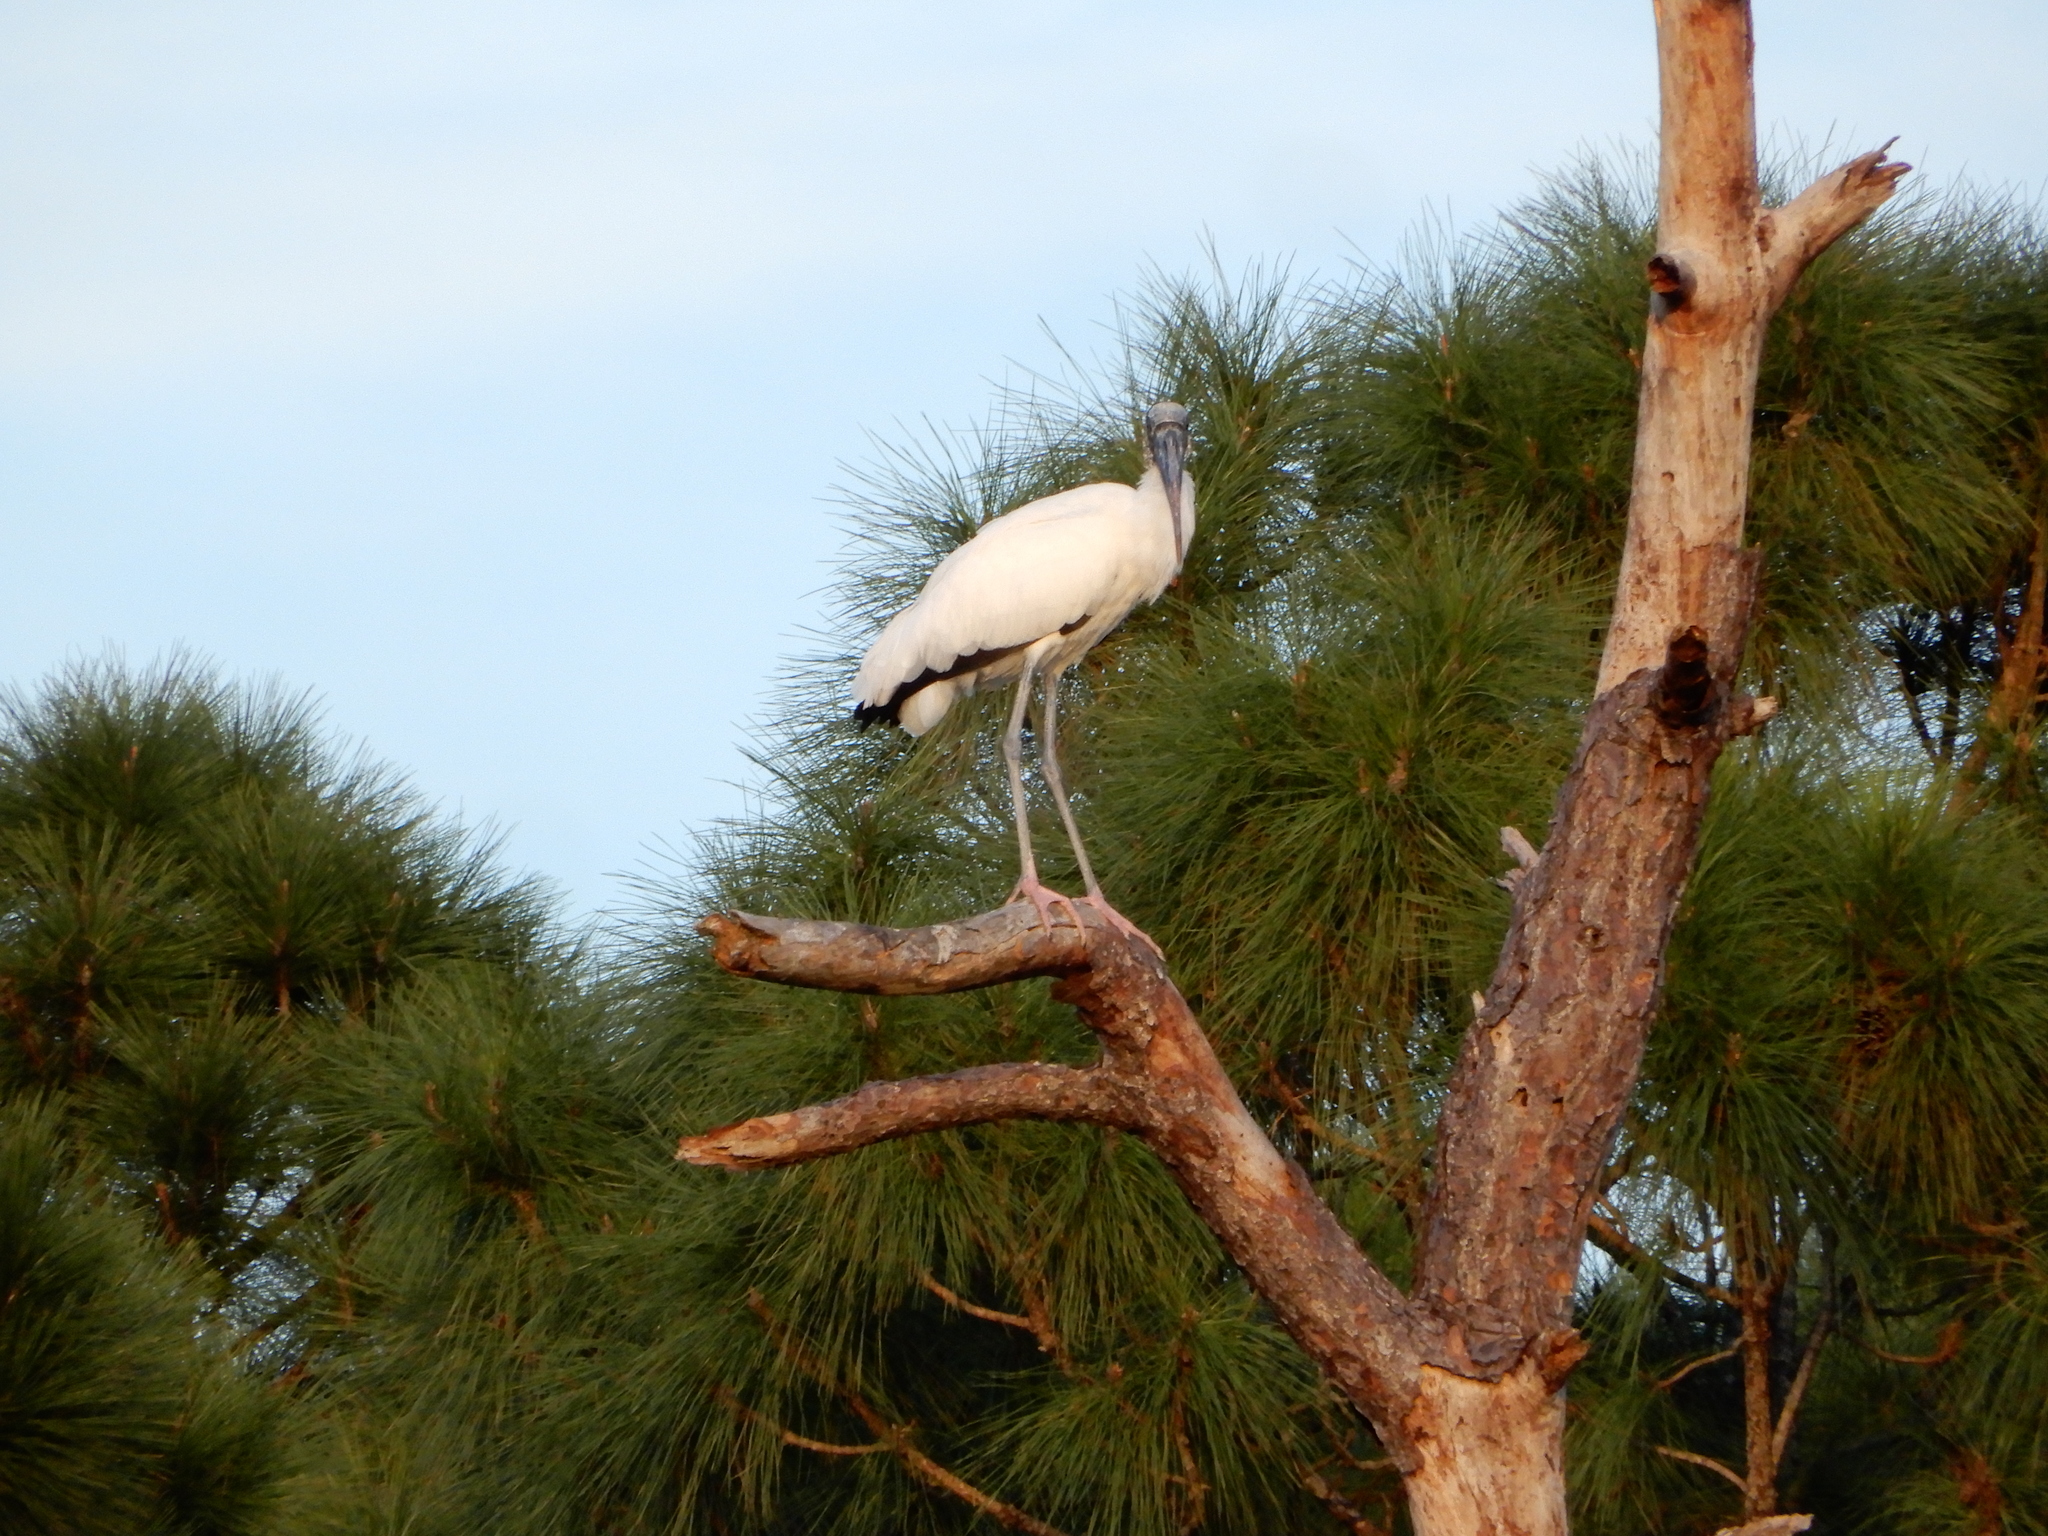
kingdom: Animalia
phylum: Chordata
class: Aves
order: Ciconiiformes
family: Ciconiidae
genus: Mycteria
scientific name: Mycteria americana
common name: Wood stork
